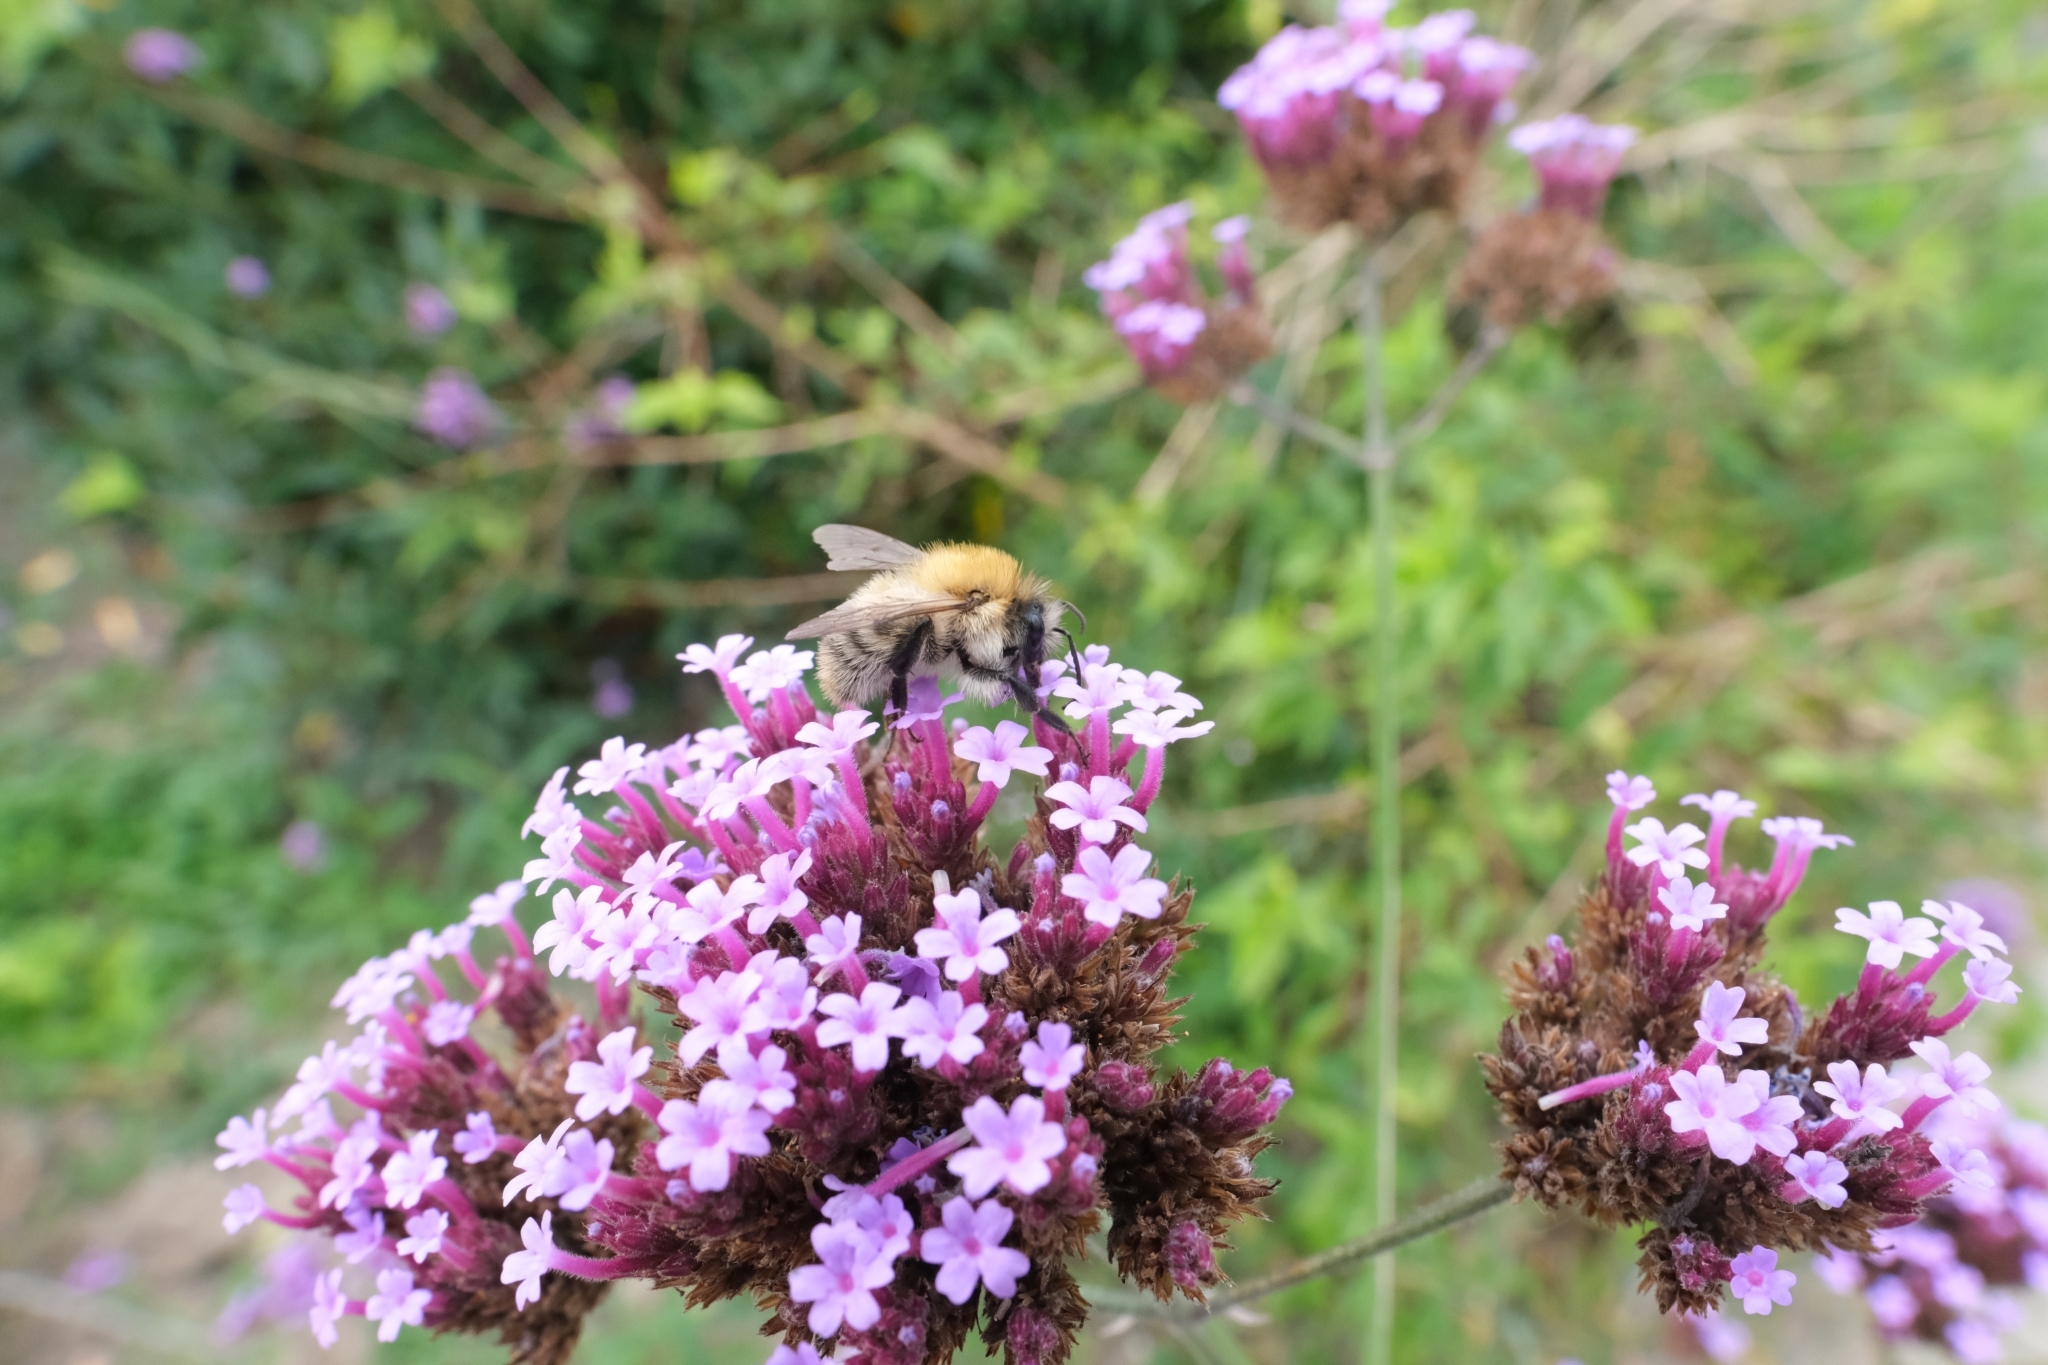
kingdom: Animalia
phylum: Arthropoda
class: Insecta
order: Hymenoptera
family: Apidae
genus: Bombus
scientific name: Bombus pascuorum
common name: Common carder bee
